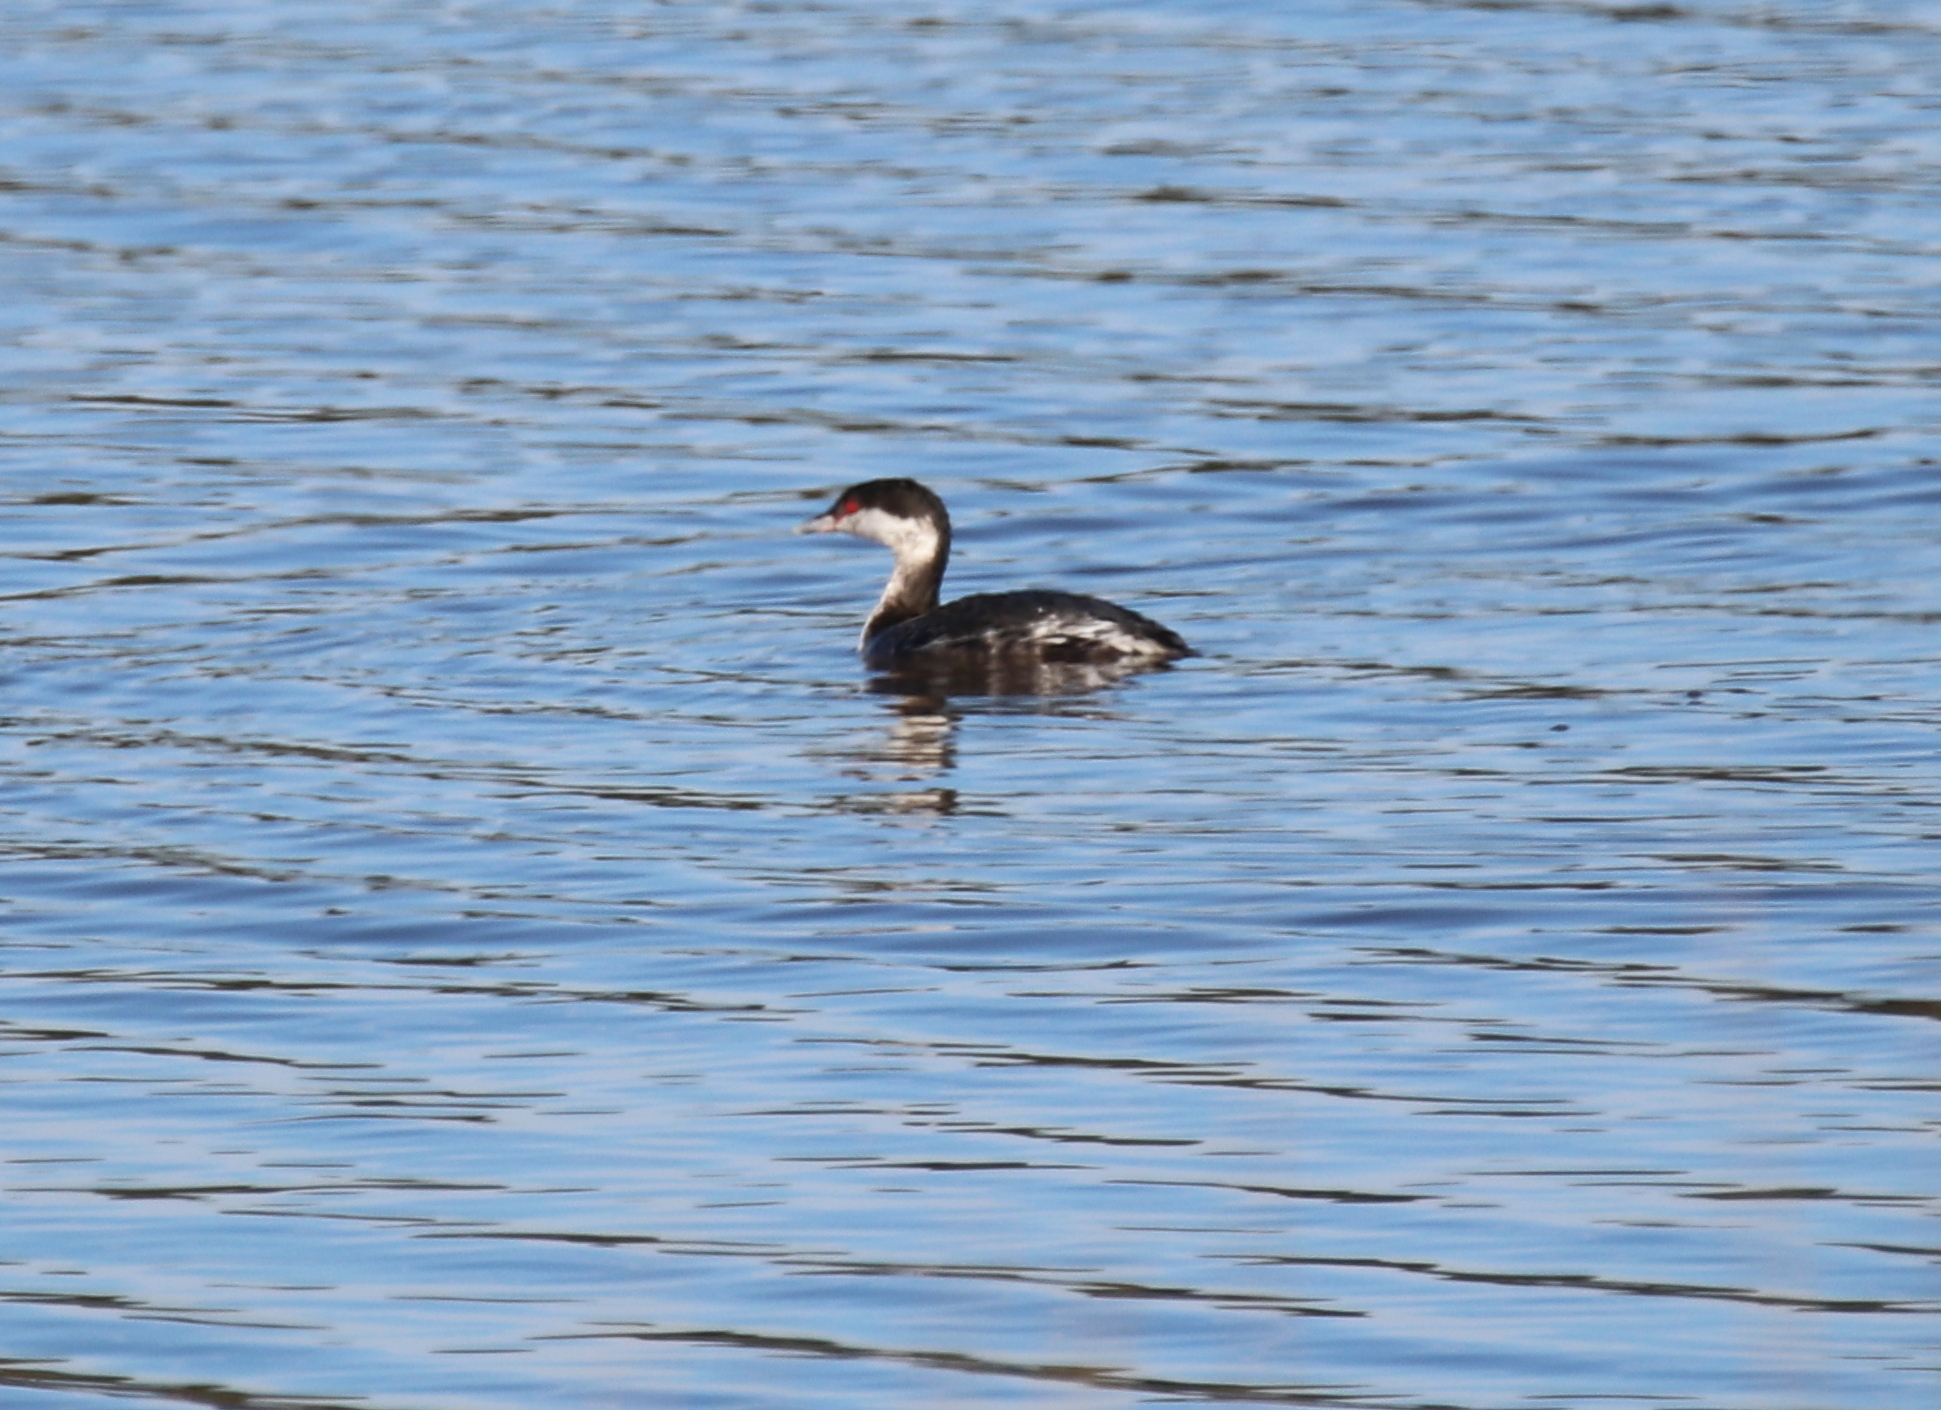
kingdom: Animalia
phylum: Chordata
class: Aves
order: Podicipediformes
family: Podicipedidae
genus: Podiceps
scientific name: Podiceps auritus
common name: Horned grebe
